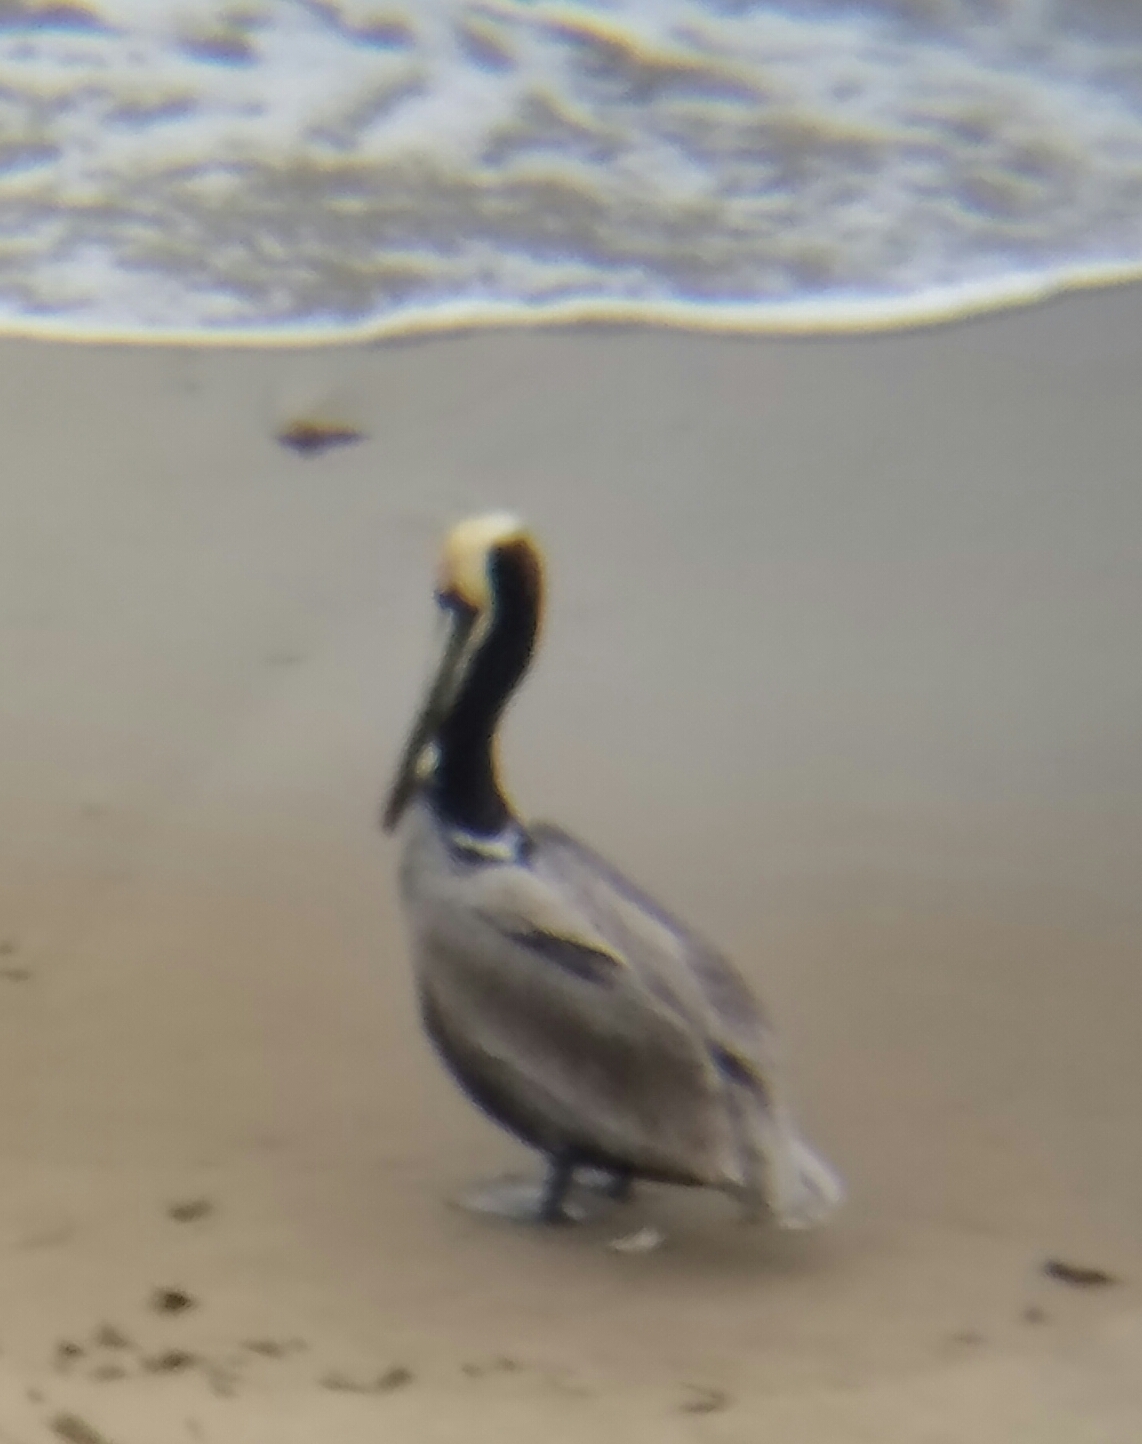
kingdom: Animalia
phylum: Chordata
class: Aves
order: Pelecaniformes
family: Pelecanidae
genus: Pelecanus
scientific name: Pelecanus occidentalis
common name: Brown pelican
